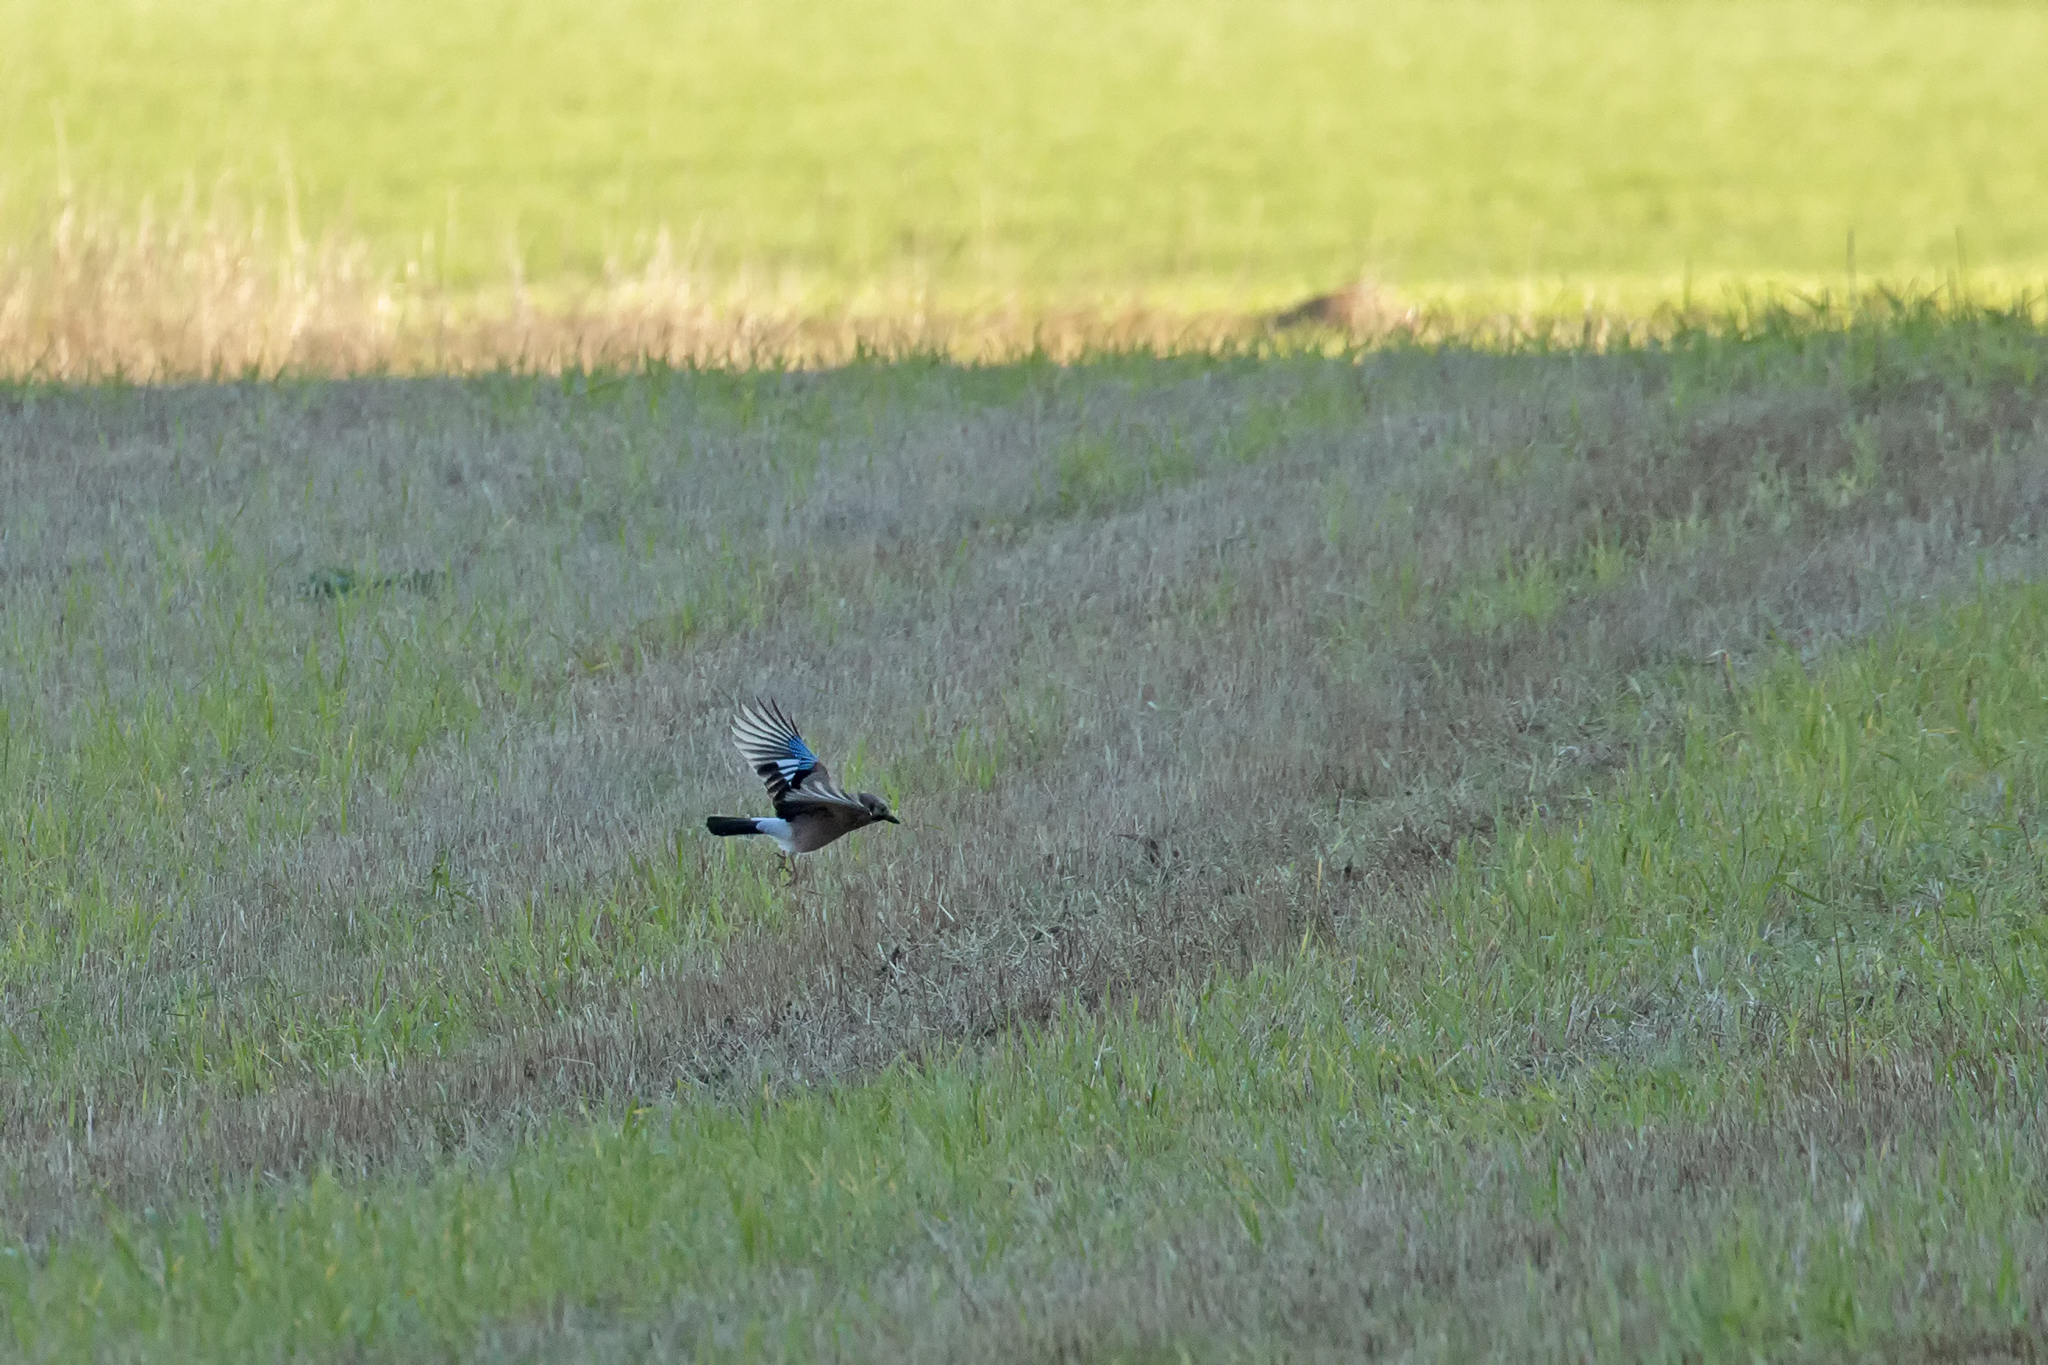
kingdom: Animalia
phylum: Chordata
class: Aves
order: Passeriformes
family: Corvidae
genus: Garrulus
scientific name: Garrulus glandarius
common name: Eurasian jay
